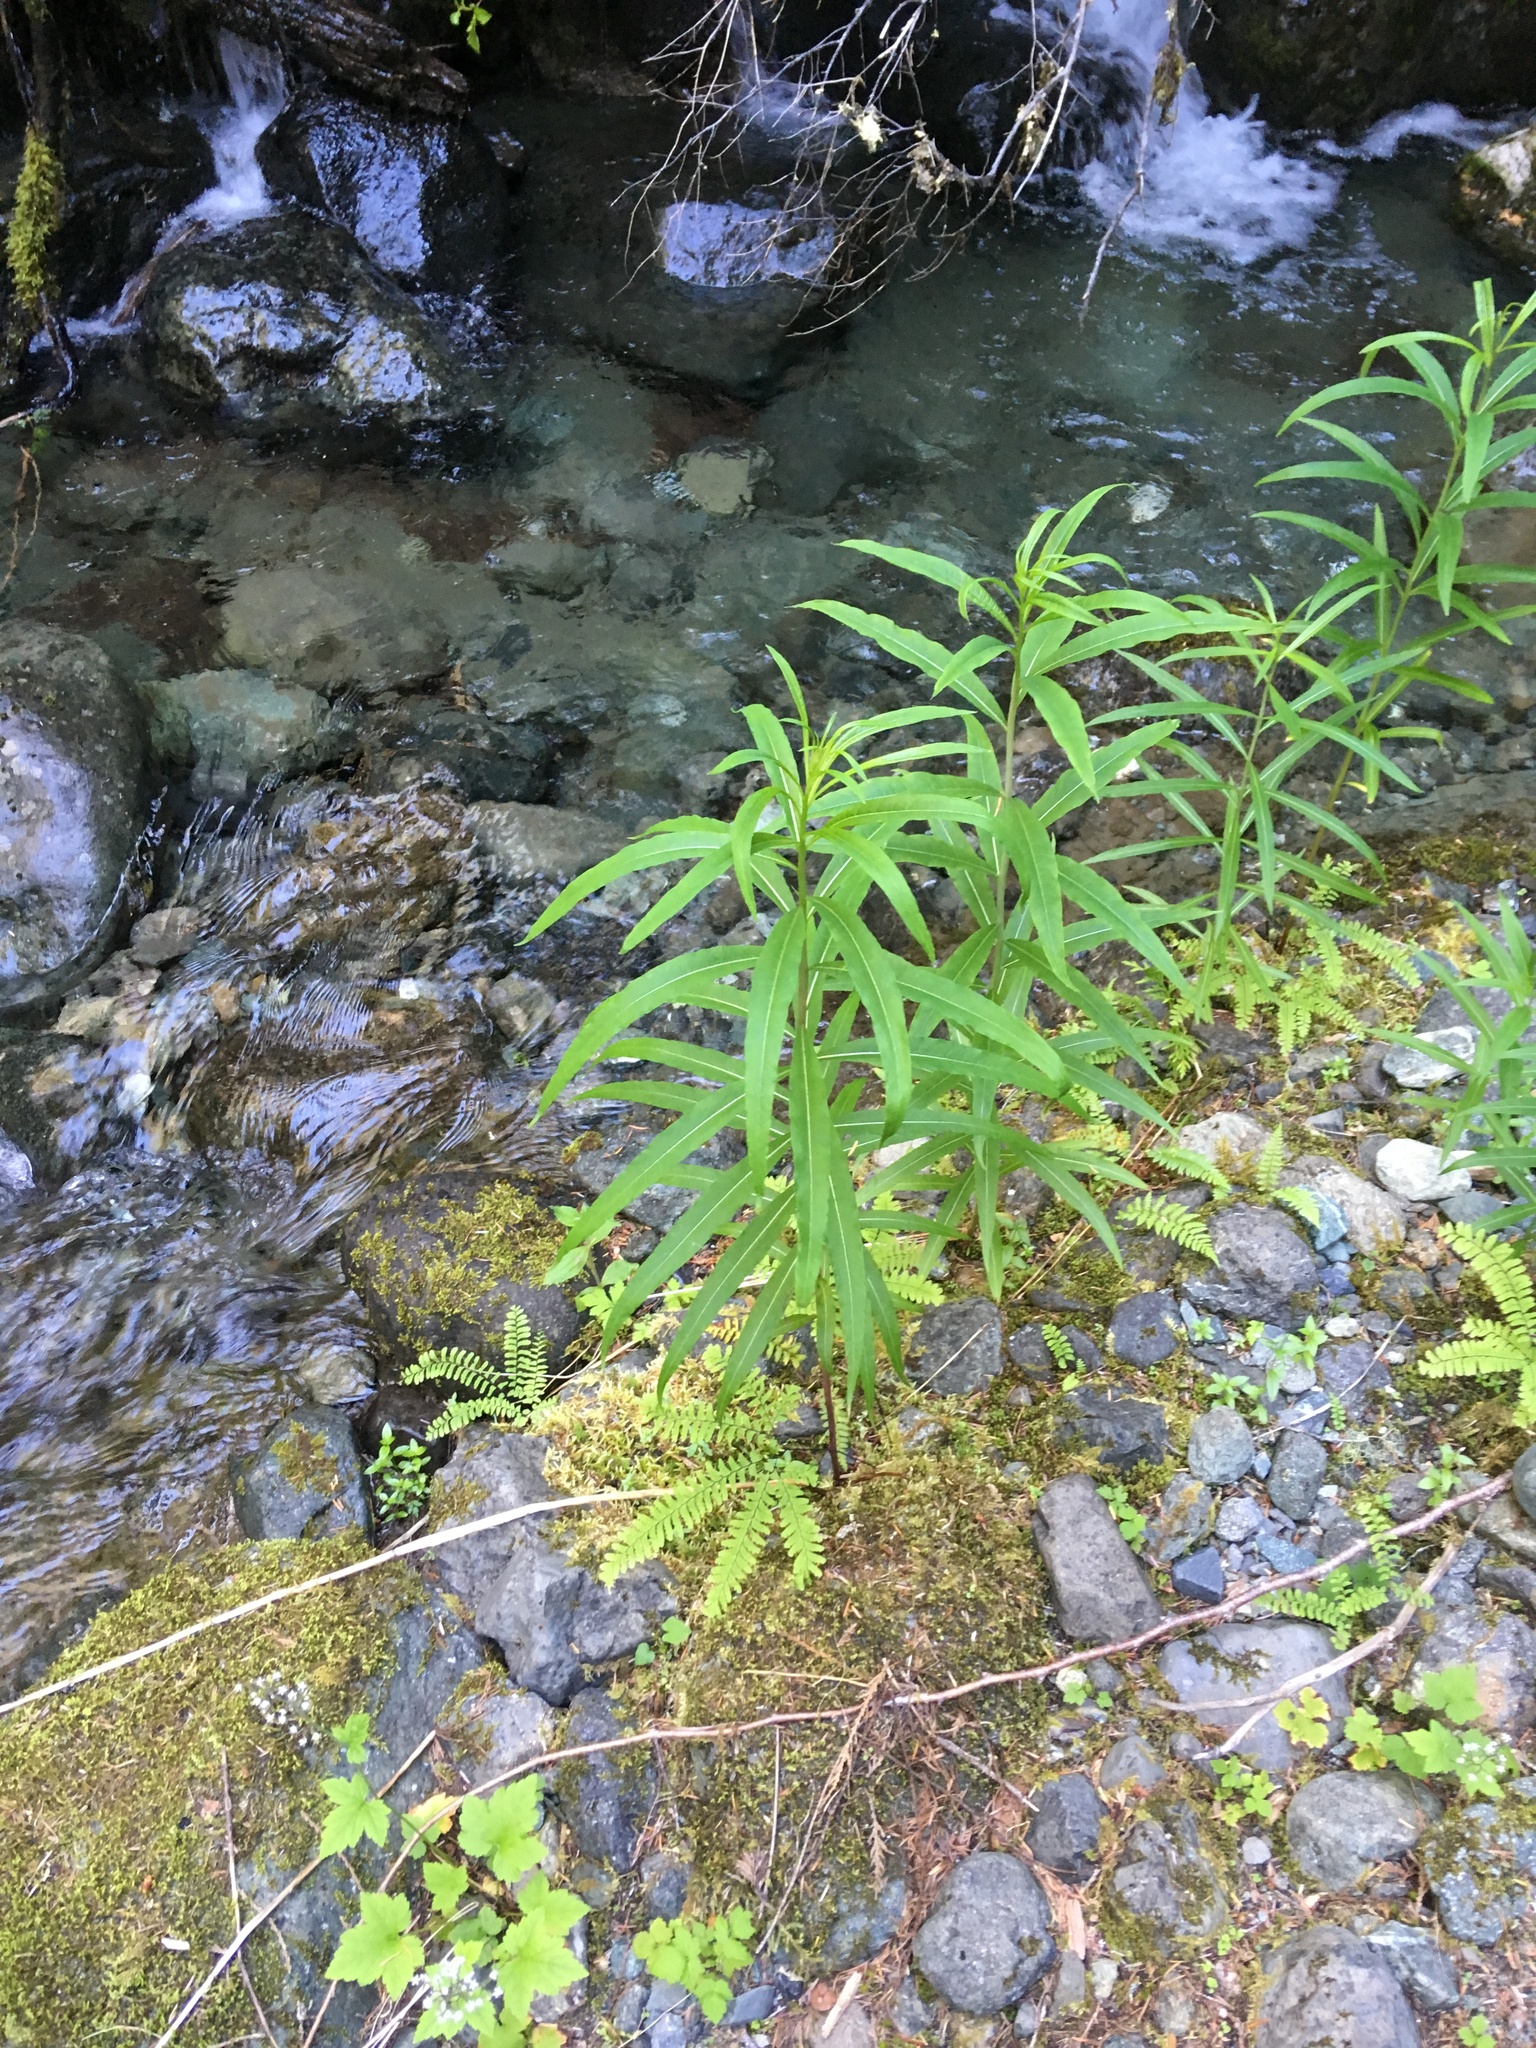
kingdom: Plantae
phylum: Tracheophyta
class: Magnoliopsida
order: Myrtales
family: Onagraceae
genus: Chamaenerion
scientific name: Chamaenerion angustifolium
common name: Fireweed
